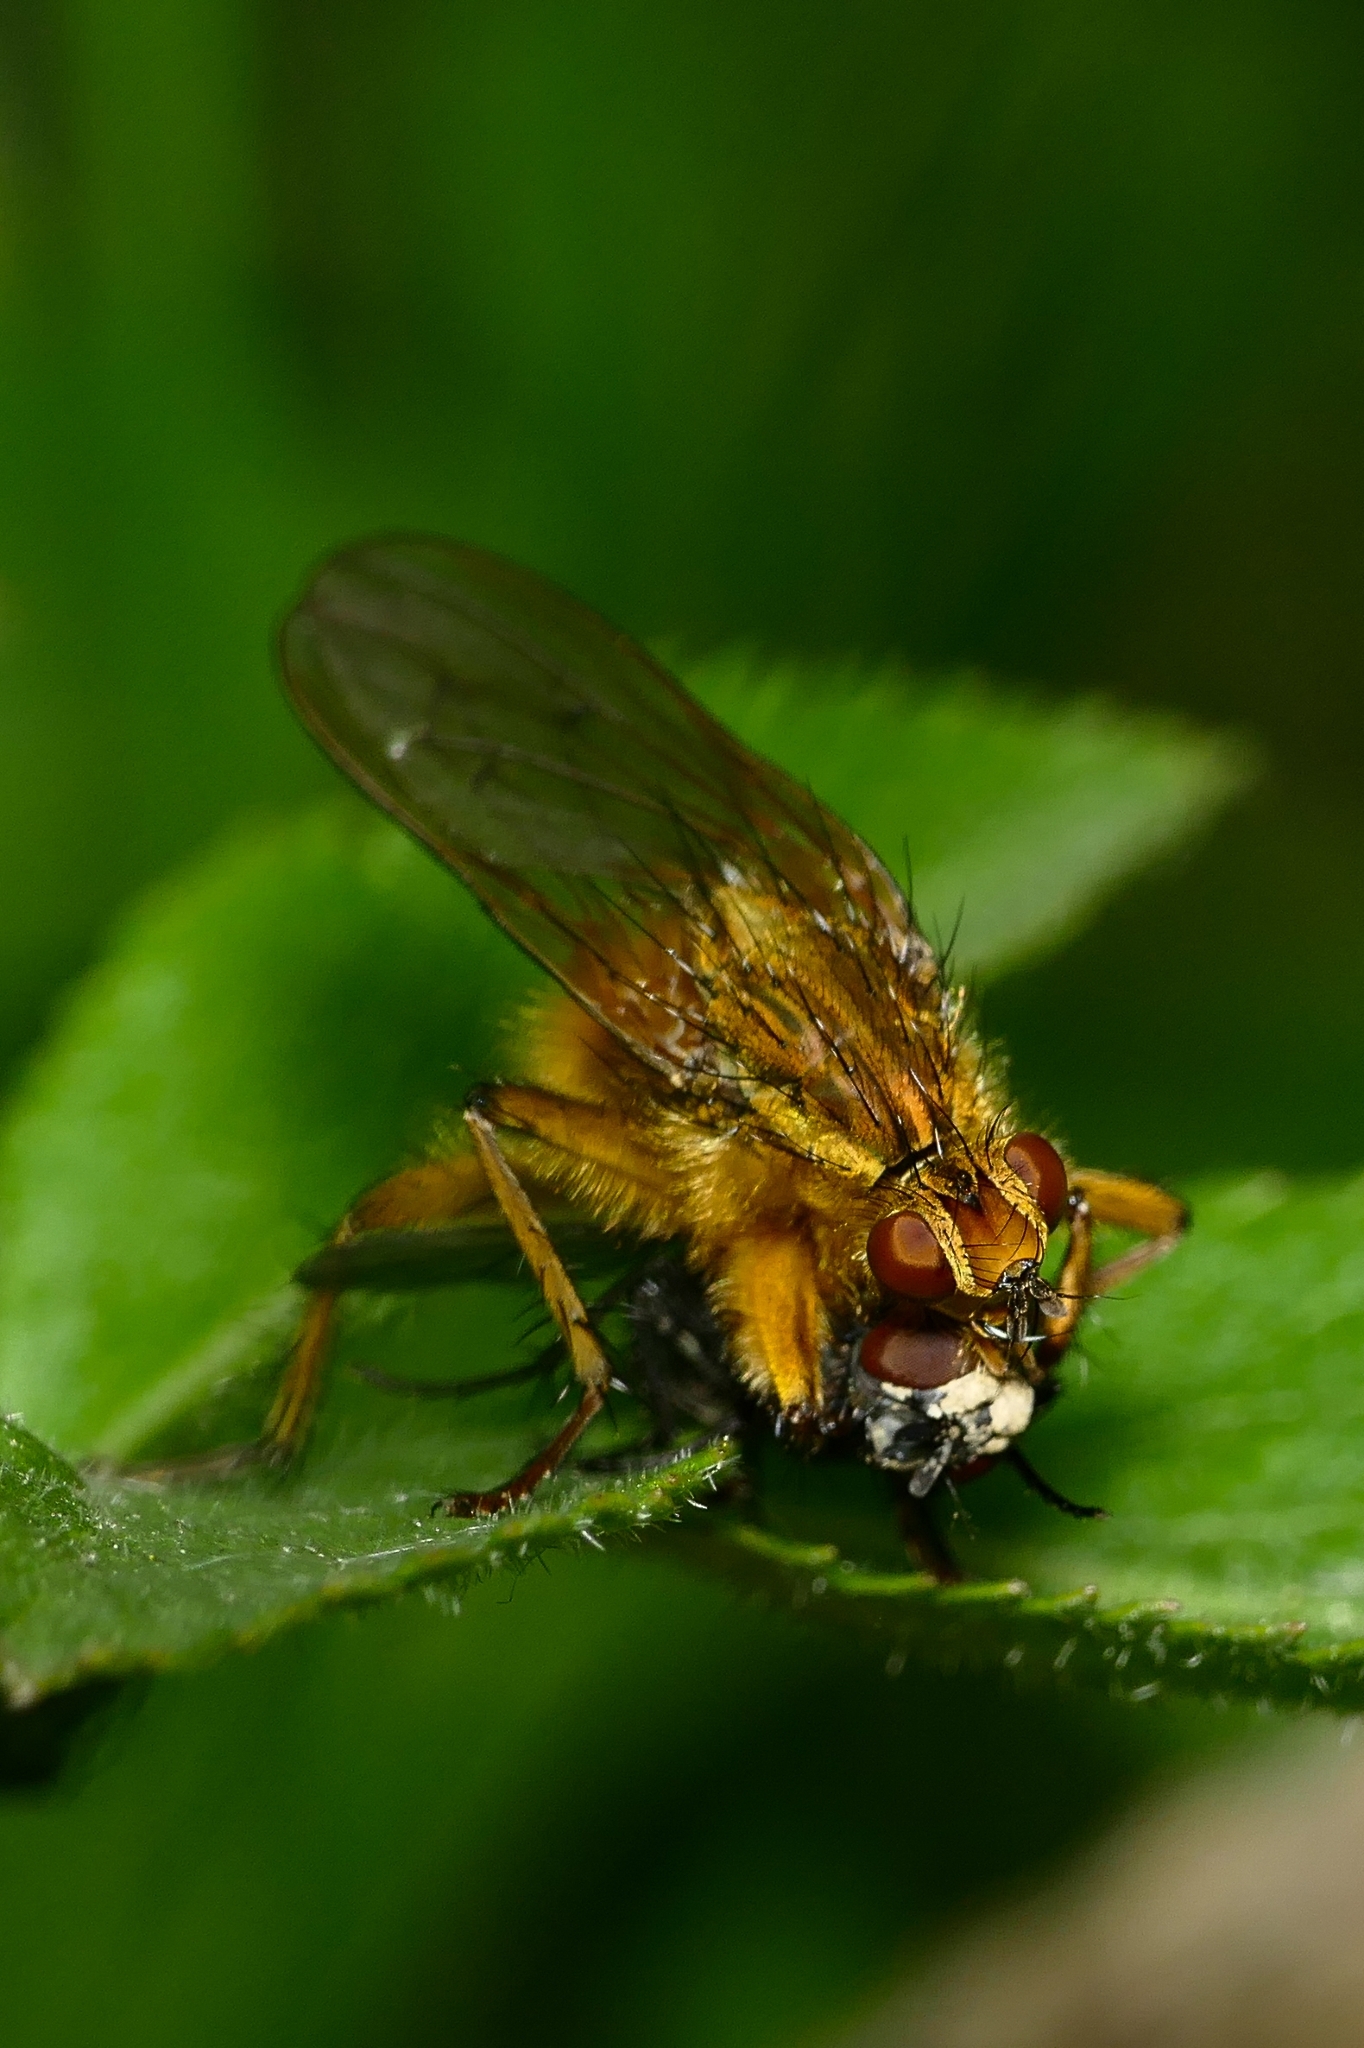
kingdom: Animalia
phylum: Arthropoda
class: Insecta
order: Diptera
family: Scathophagidae
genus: Scathophaga
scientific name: Scathophaga stercoraria
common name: Yellow dung fly
